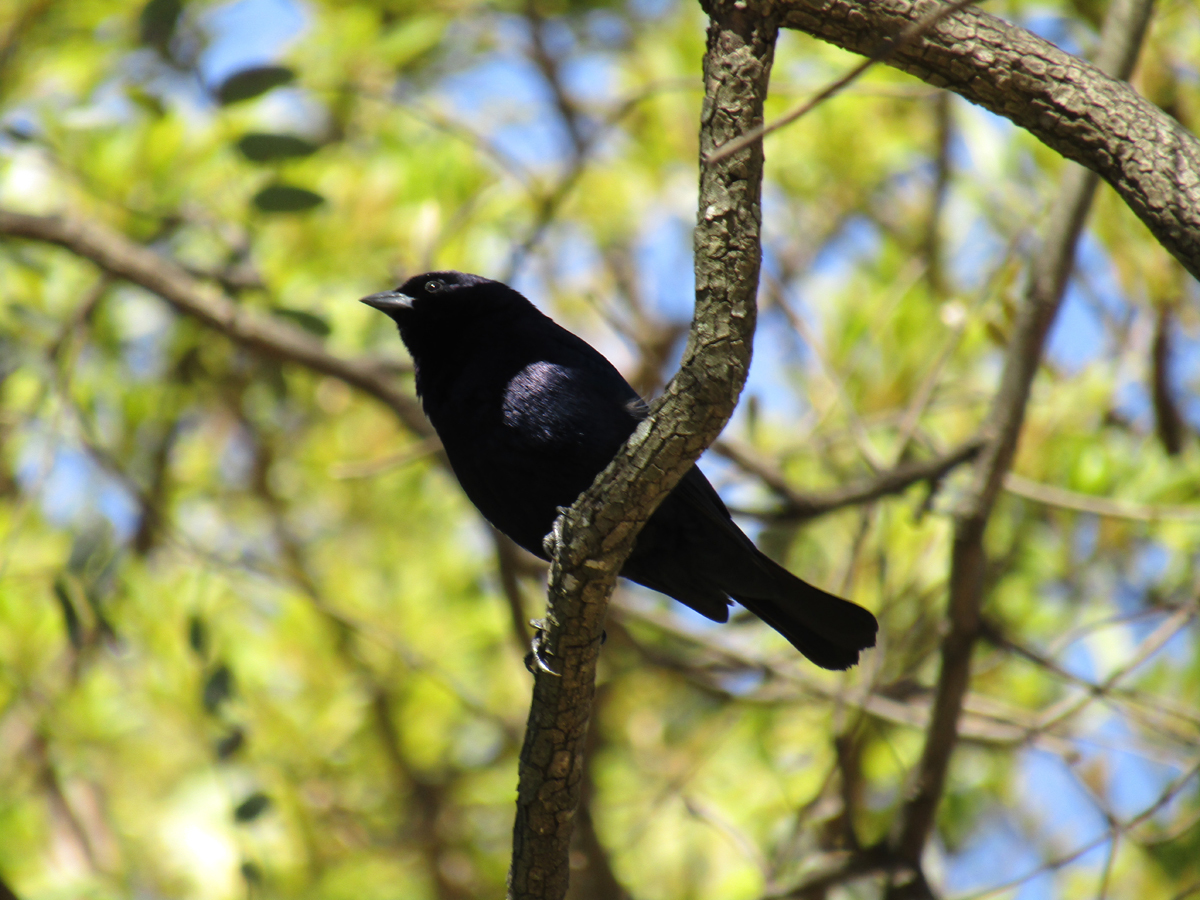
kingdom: Animalia
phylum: Chordata
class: Aves
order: Passeriformes
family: Icteridae
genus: Molothrus
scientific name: Molothrus bonariensis
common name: Shiny cowbird
